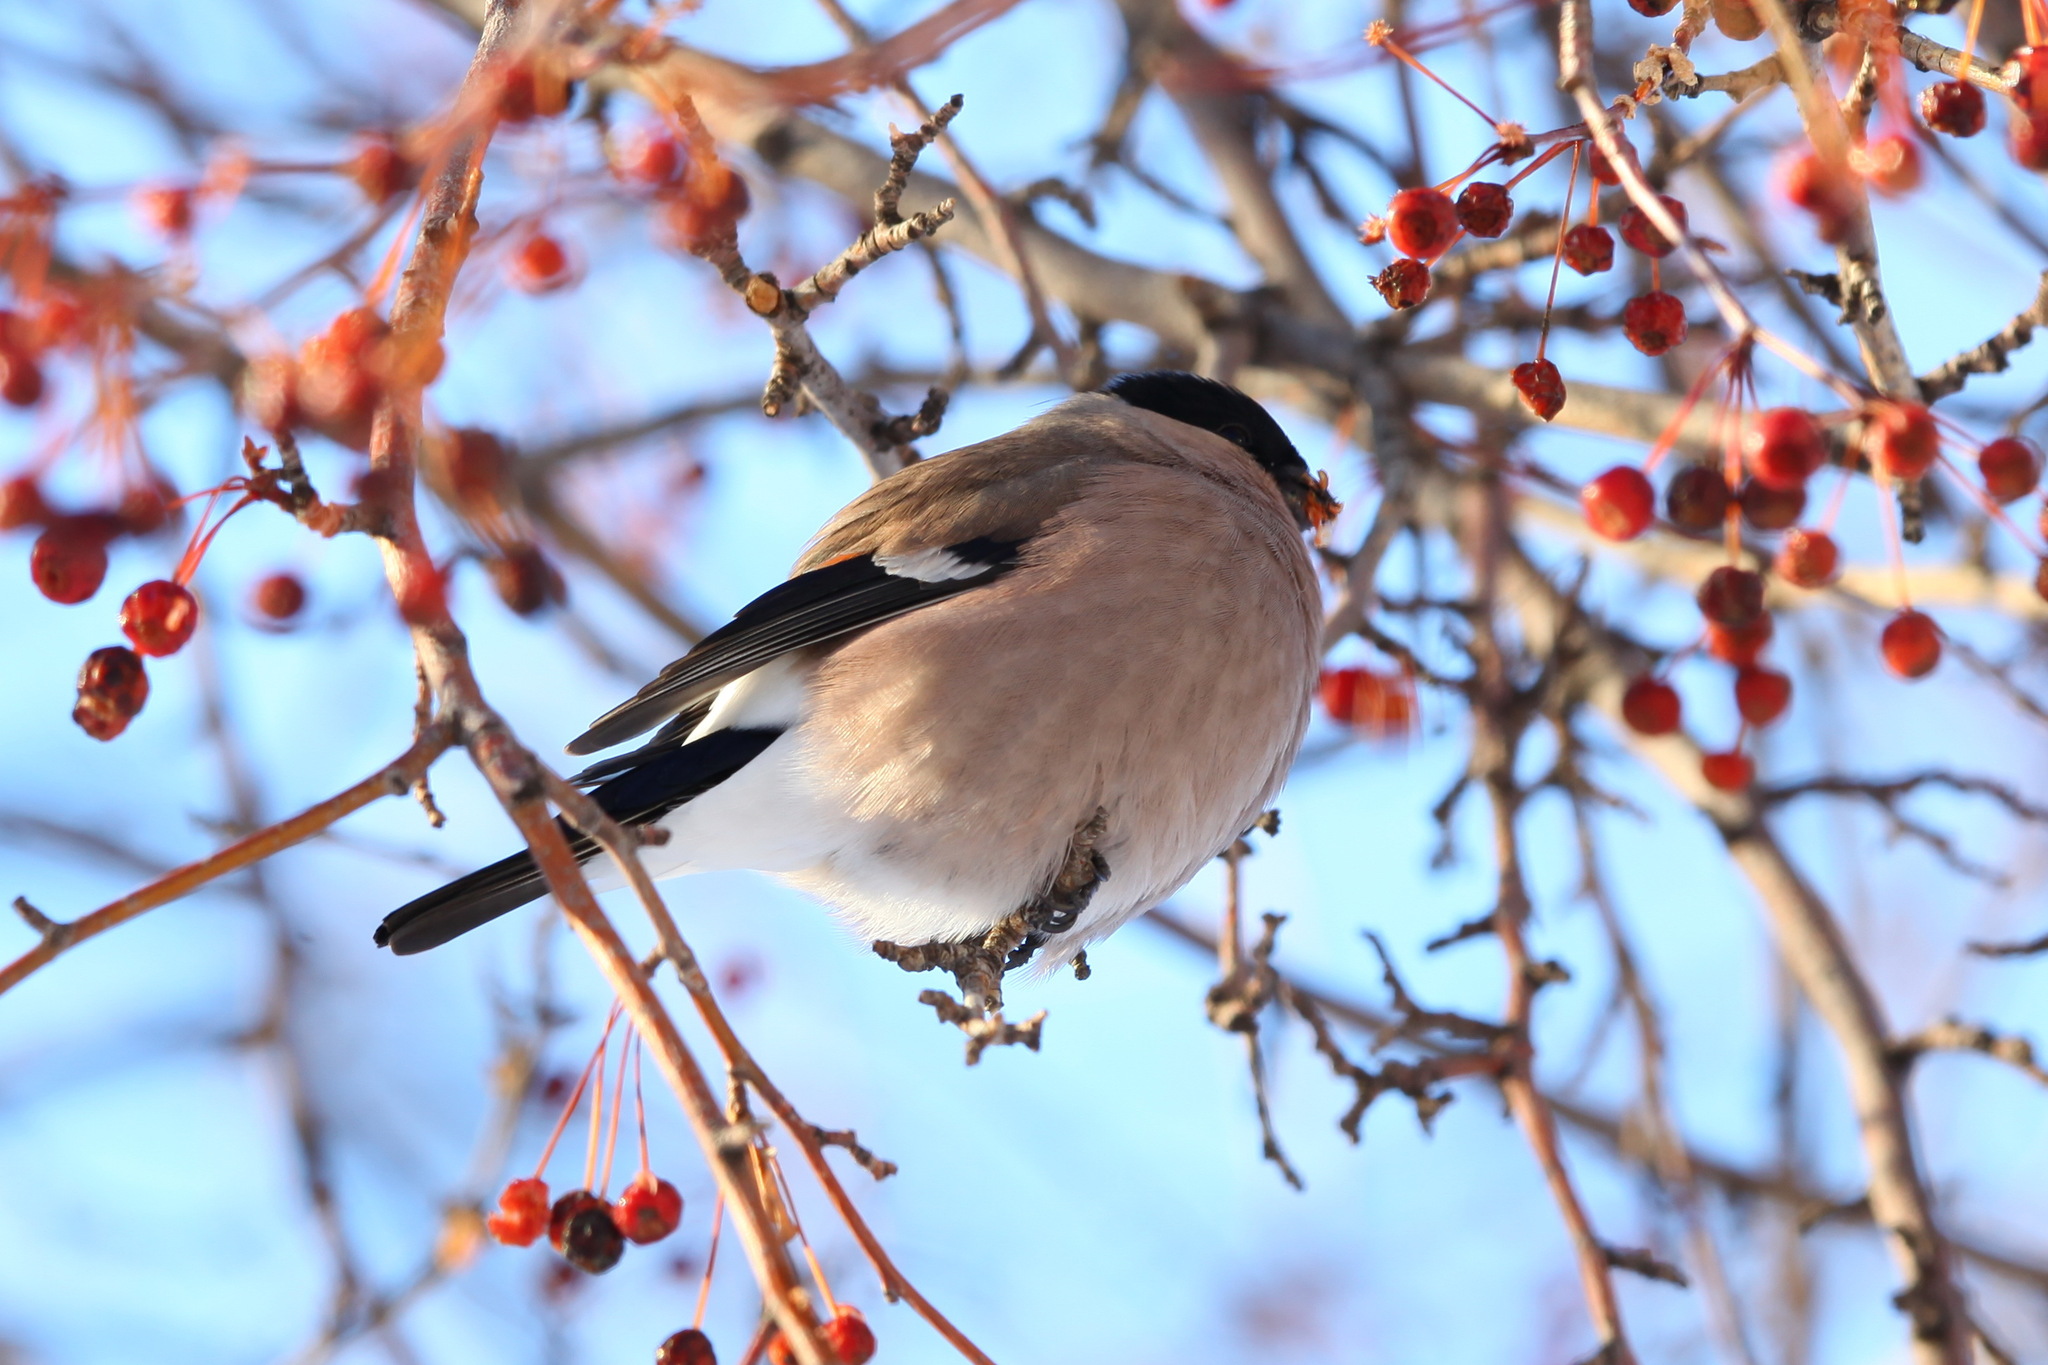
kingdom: Animalia
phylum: Chordata
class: Aves
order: Passeriformes
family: Fringillidae
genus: Pyrrhula
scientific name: Pyrrhula pyrrhula
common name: Eurasian bullfinch
